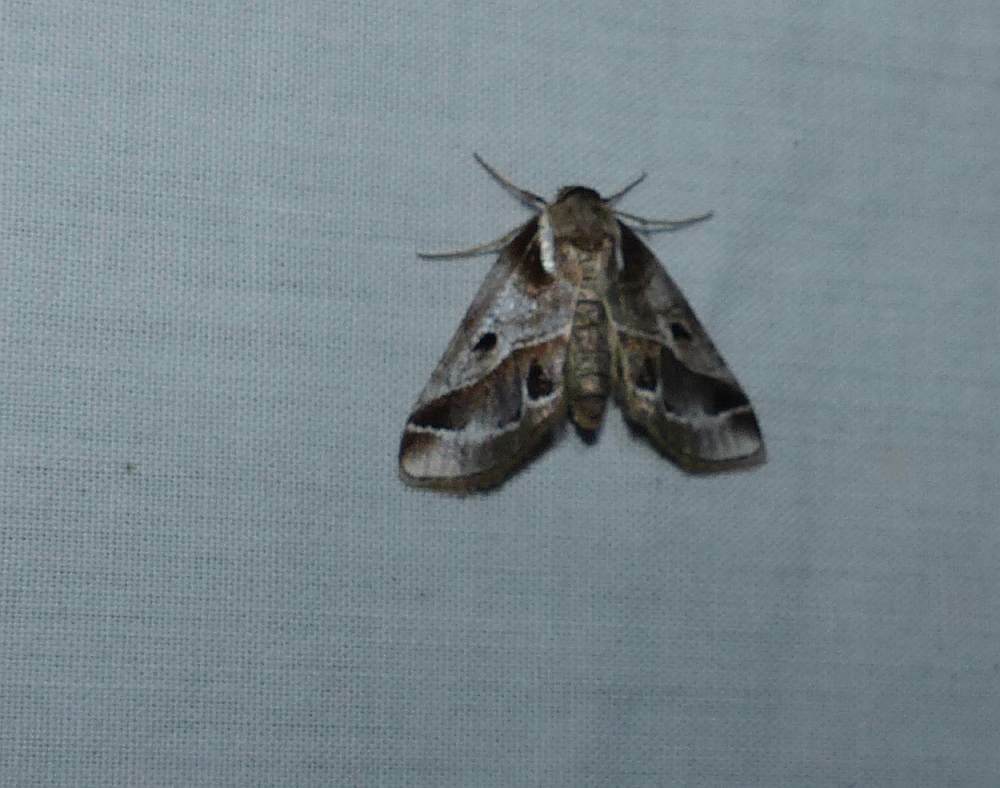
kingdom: Animalia
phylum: Arthropoda
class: Insecta
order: Lepidoptera
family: Nolidae
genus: Baileya
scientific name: Baileya doubledayi
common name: Doubleday's baileya moth
